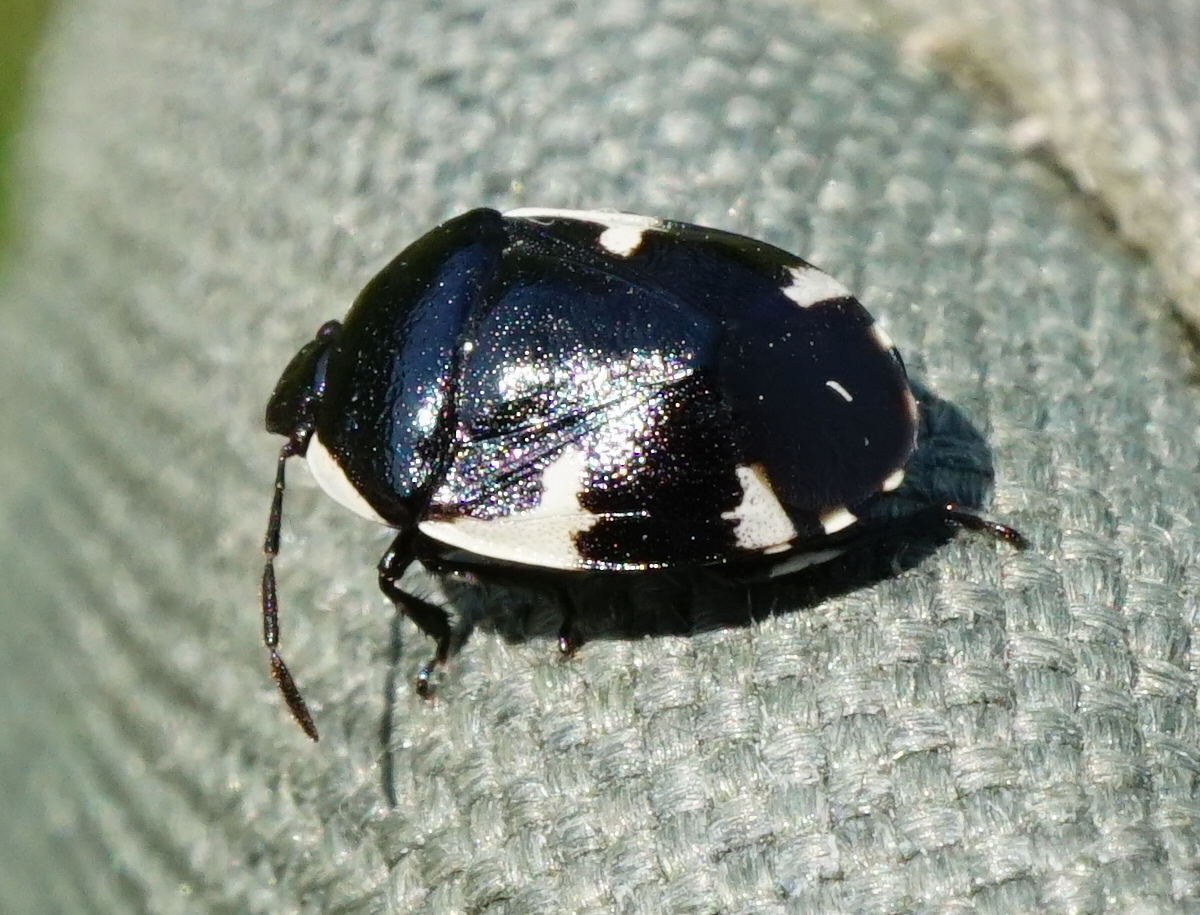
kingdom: Animalia
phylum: Arthropoda
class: Insecta
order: Hemiptera
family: Cydnidae
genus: Tritomegas
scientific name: Tritomegas sexmaculatus
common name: Rambur's pied shieldbug
